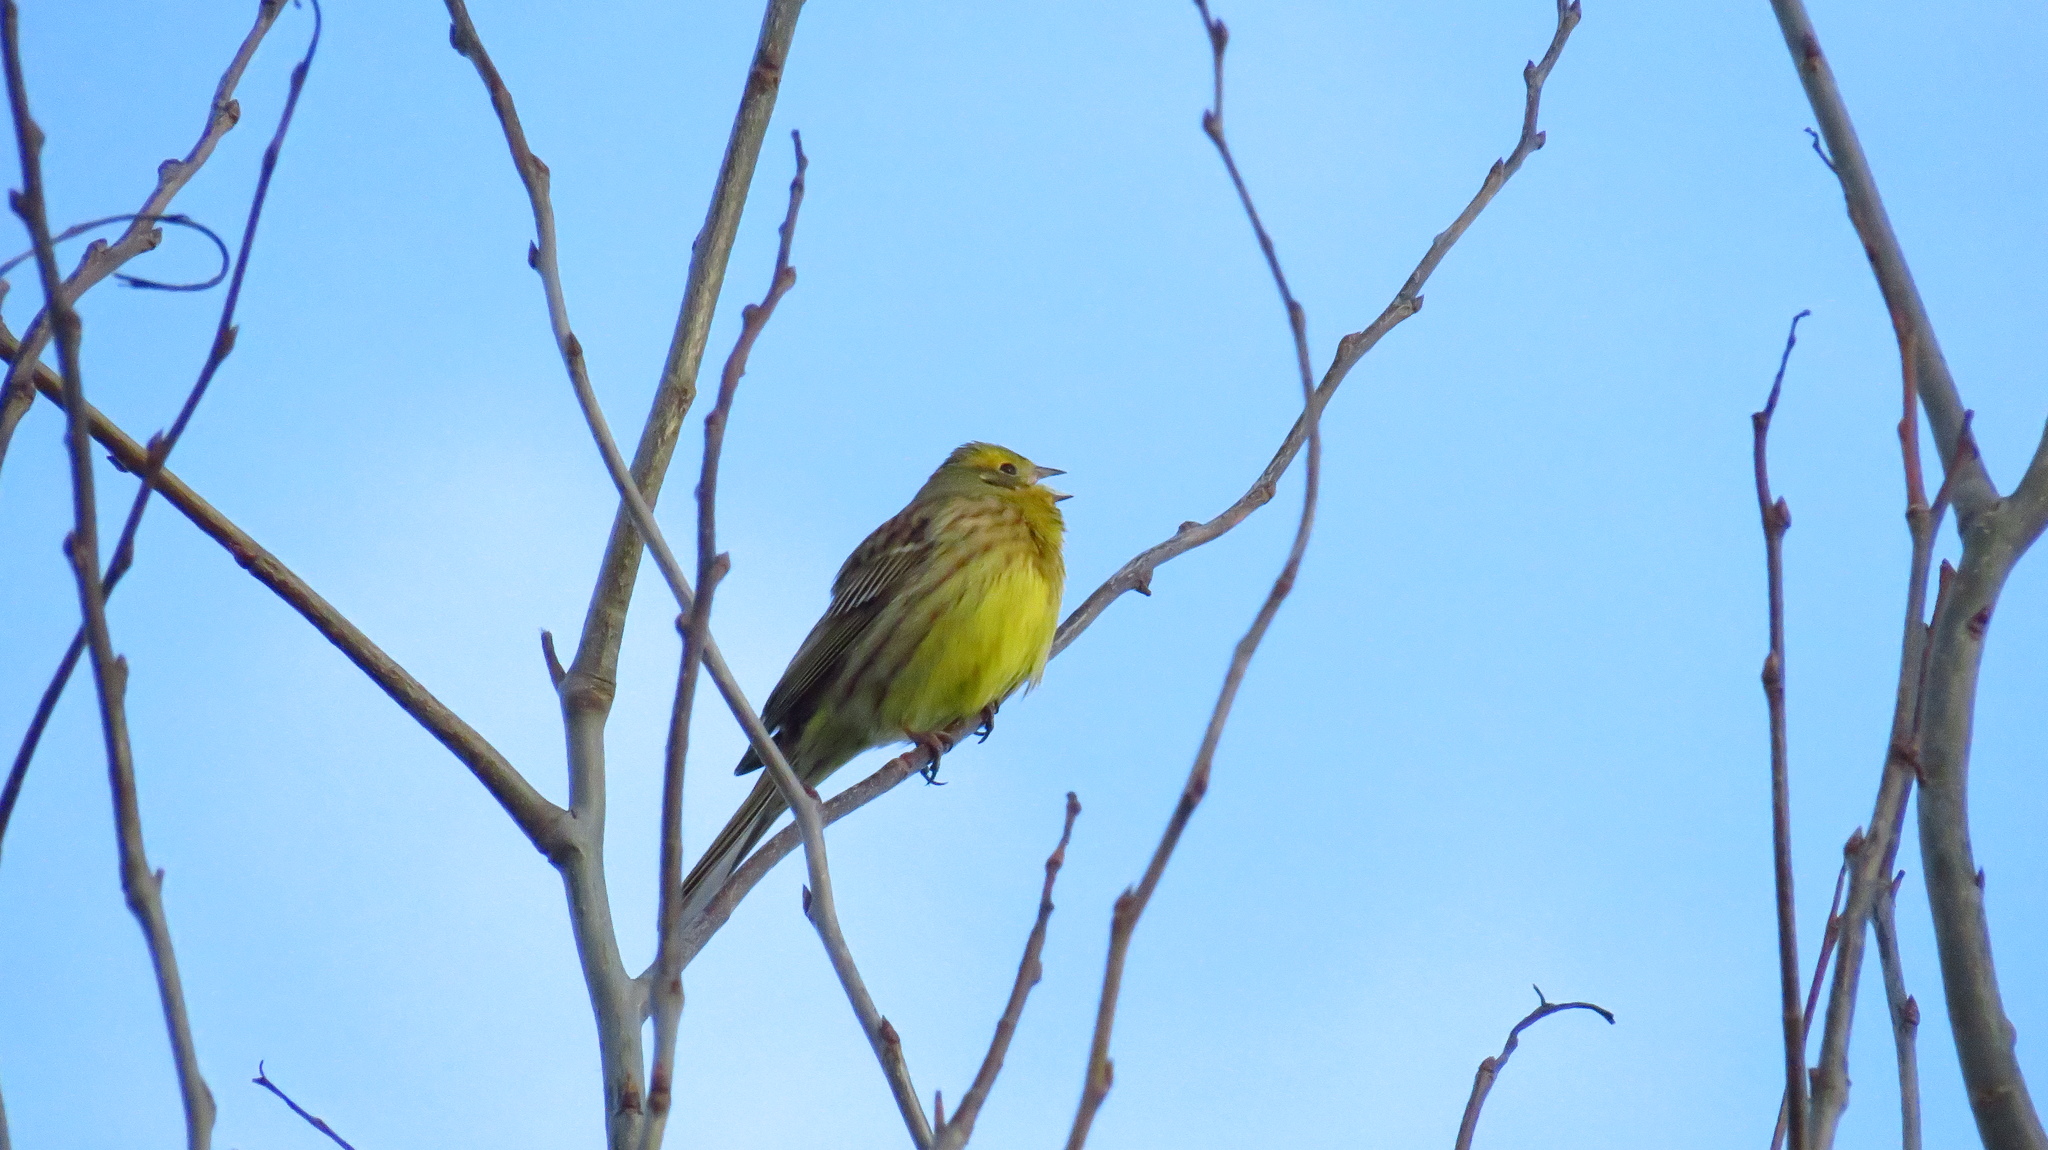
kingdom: Animalia
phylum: Chordata
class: Aves
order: Passeriformes
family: Emberizidae
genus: Emberiza
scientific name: Emberiza citrinella
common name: Yellowhammer
